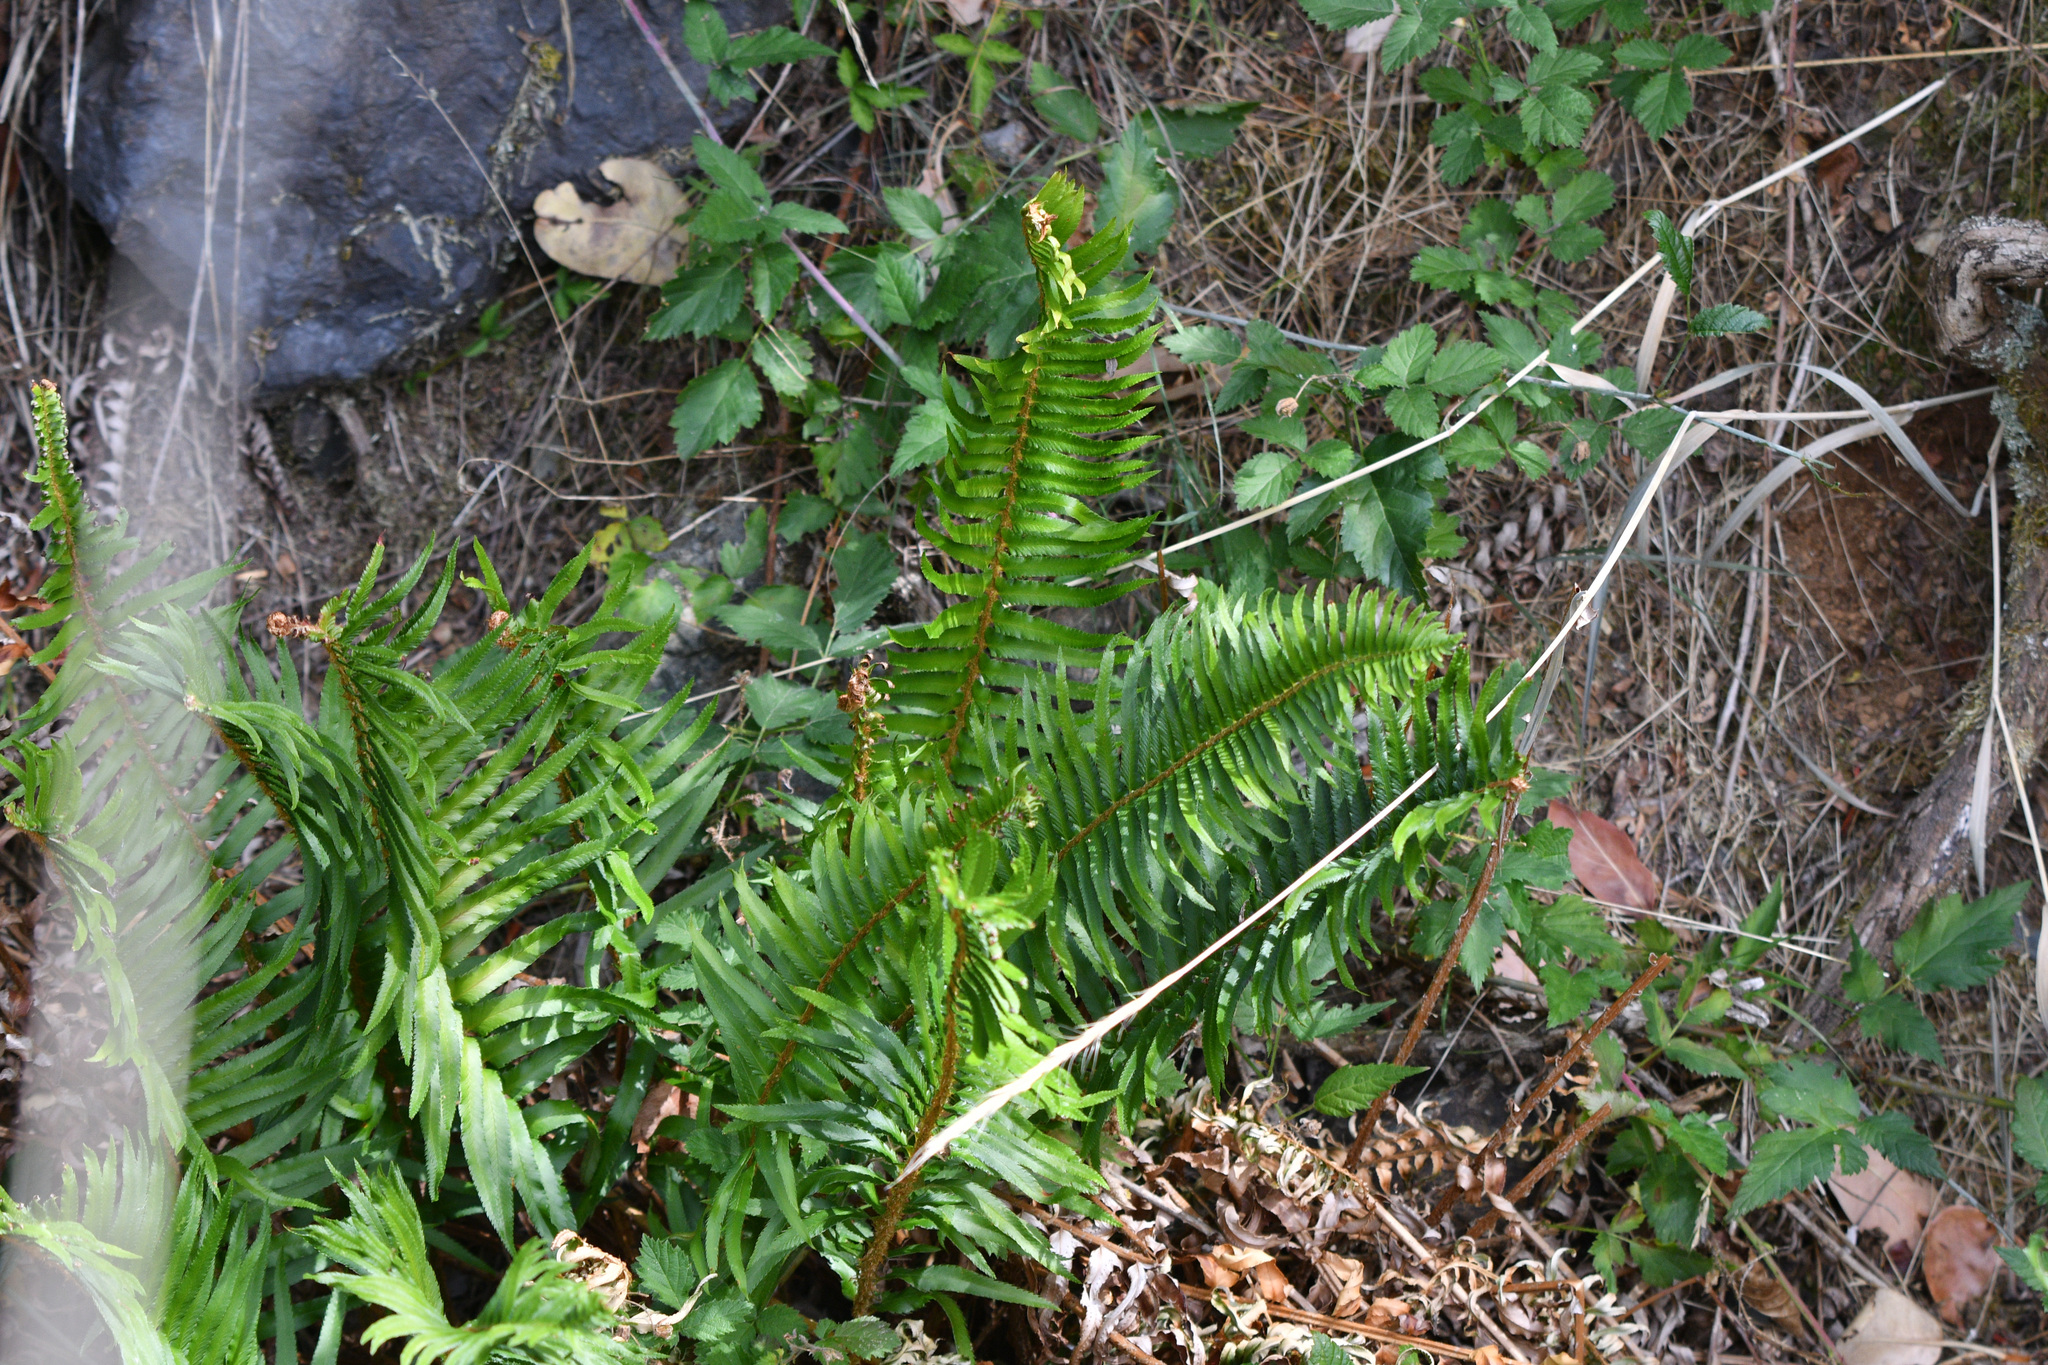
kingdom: Plantae
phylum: Tracheophyta
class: Polypodiopsida
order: Polypodiales
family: Dryopteridaceae
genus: Polystichum
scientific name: Polystichum munitum
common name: Western sword-fern
